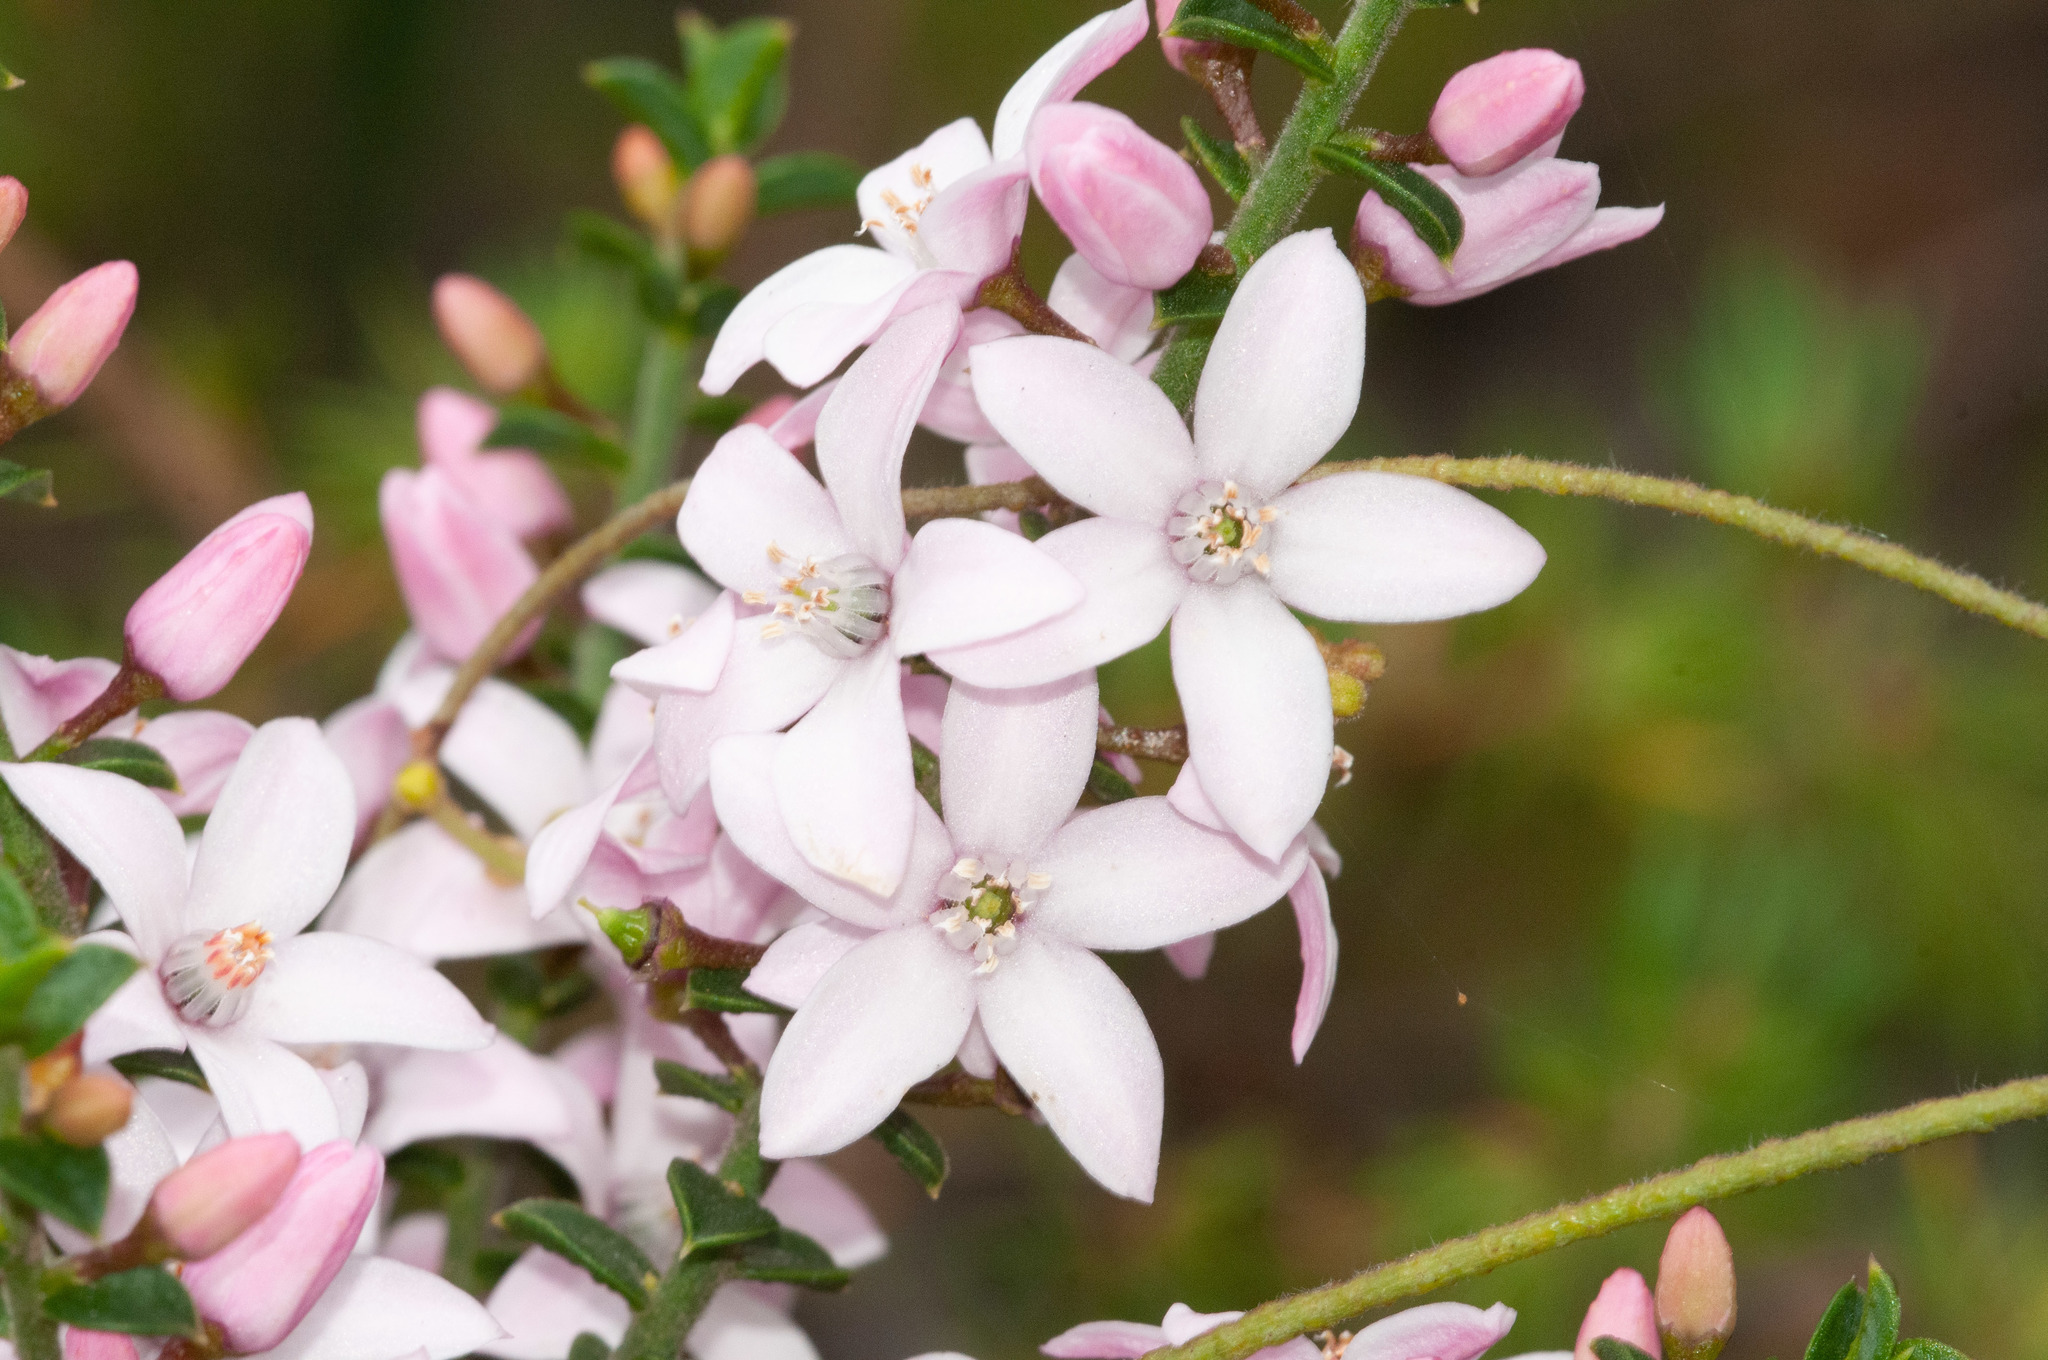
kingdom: Plantae
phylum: Tracheophyta
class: Magnoliopsida
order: Sapindales
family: Rutaceae
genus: Philotheca
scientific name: Philotheca buxifolia
